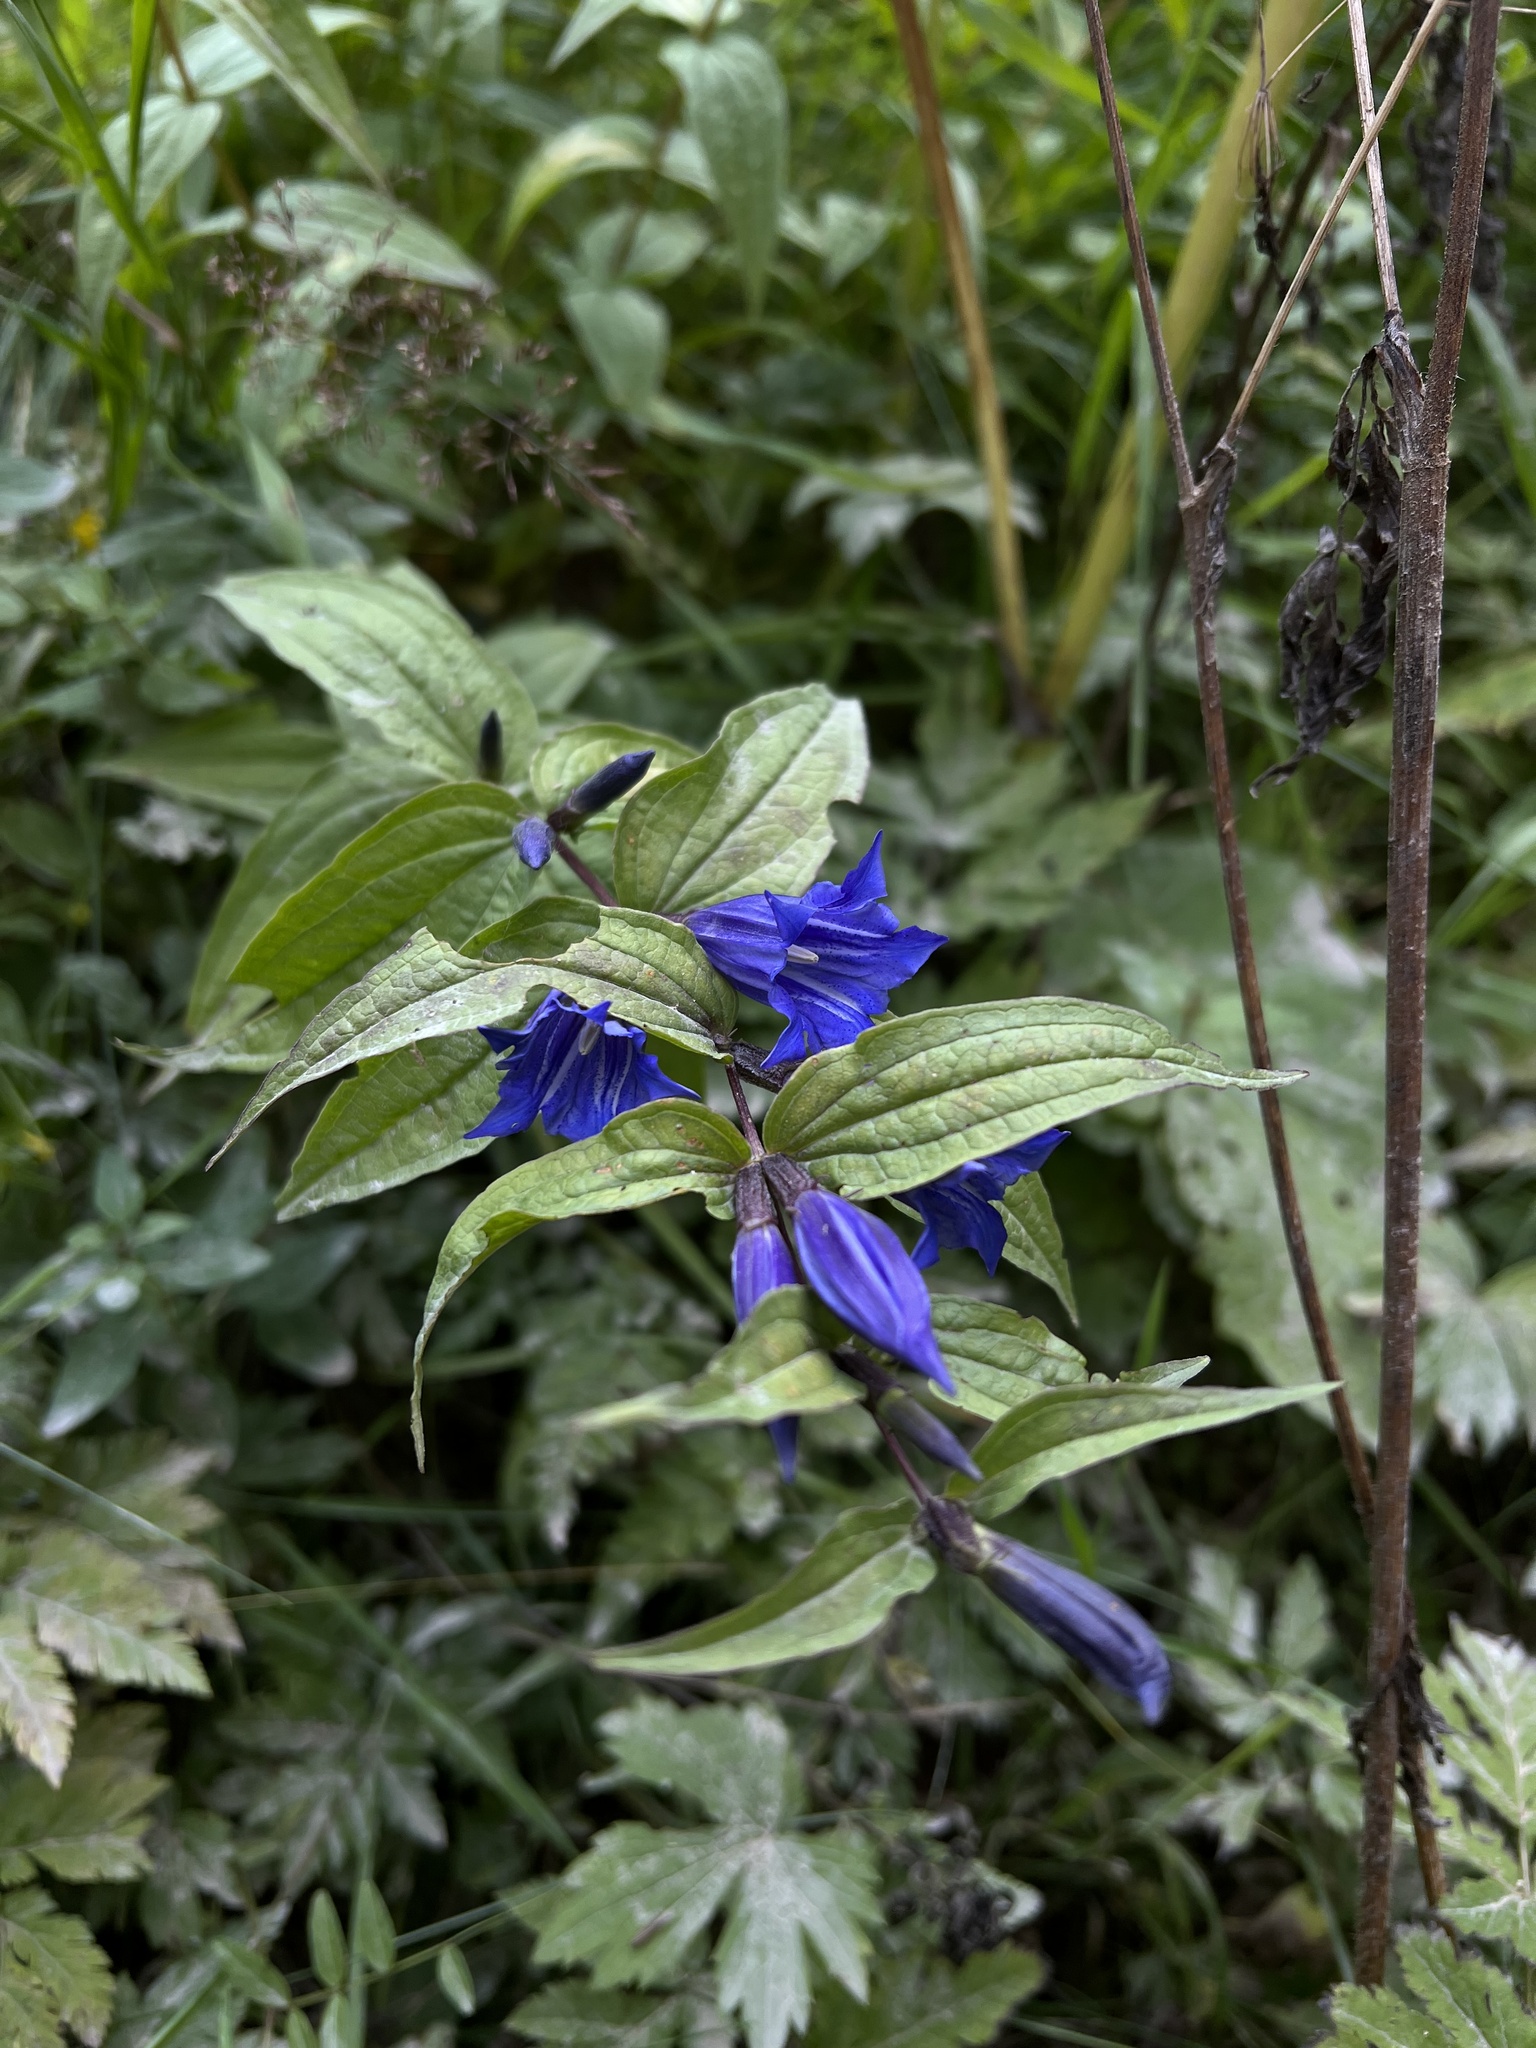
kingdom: Plantae
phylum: Tracheophyta
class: Magnoliopsida
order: Gentianales
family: Gentianaceae
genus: Gentiana
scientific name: Gentiana asclepiadea
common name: Willow gentian
